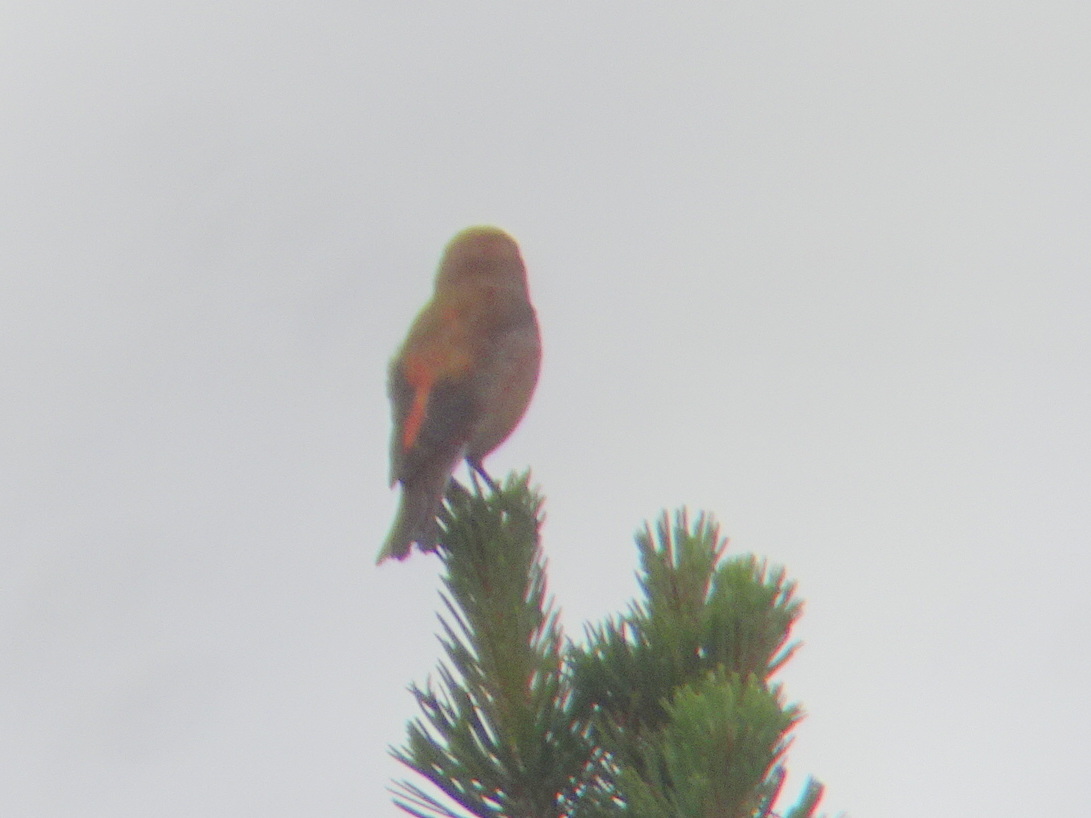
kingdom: Animalia
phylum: Chordata
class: Aves
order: Passeriformes
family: Fringillidae
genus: Loxia
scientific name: Loxia curvirostra
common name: Red crossbill
